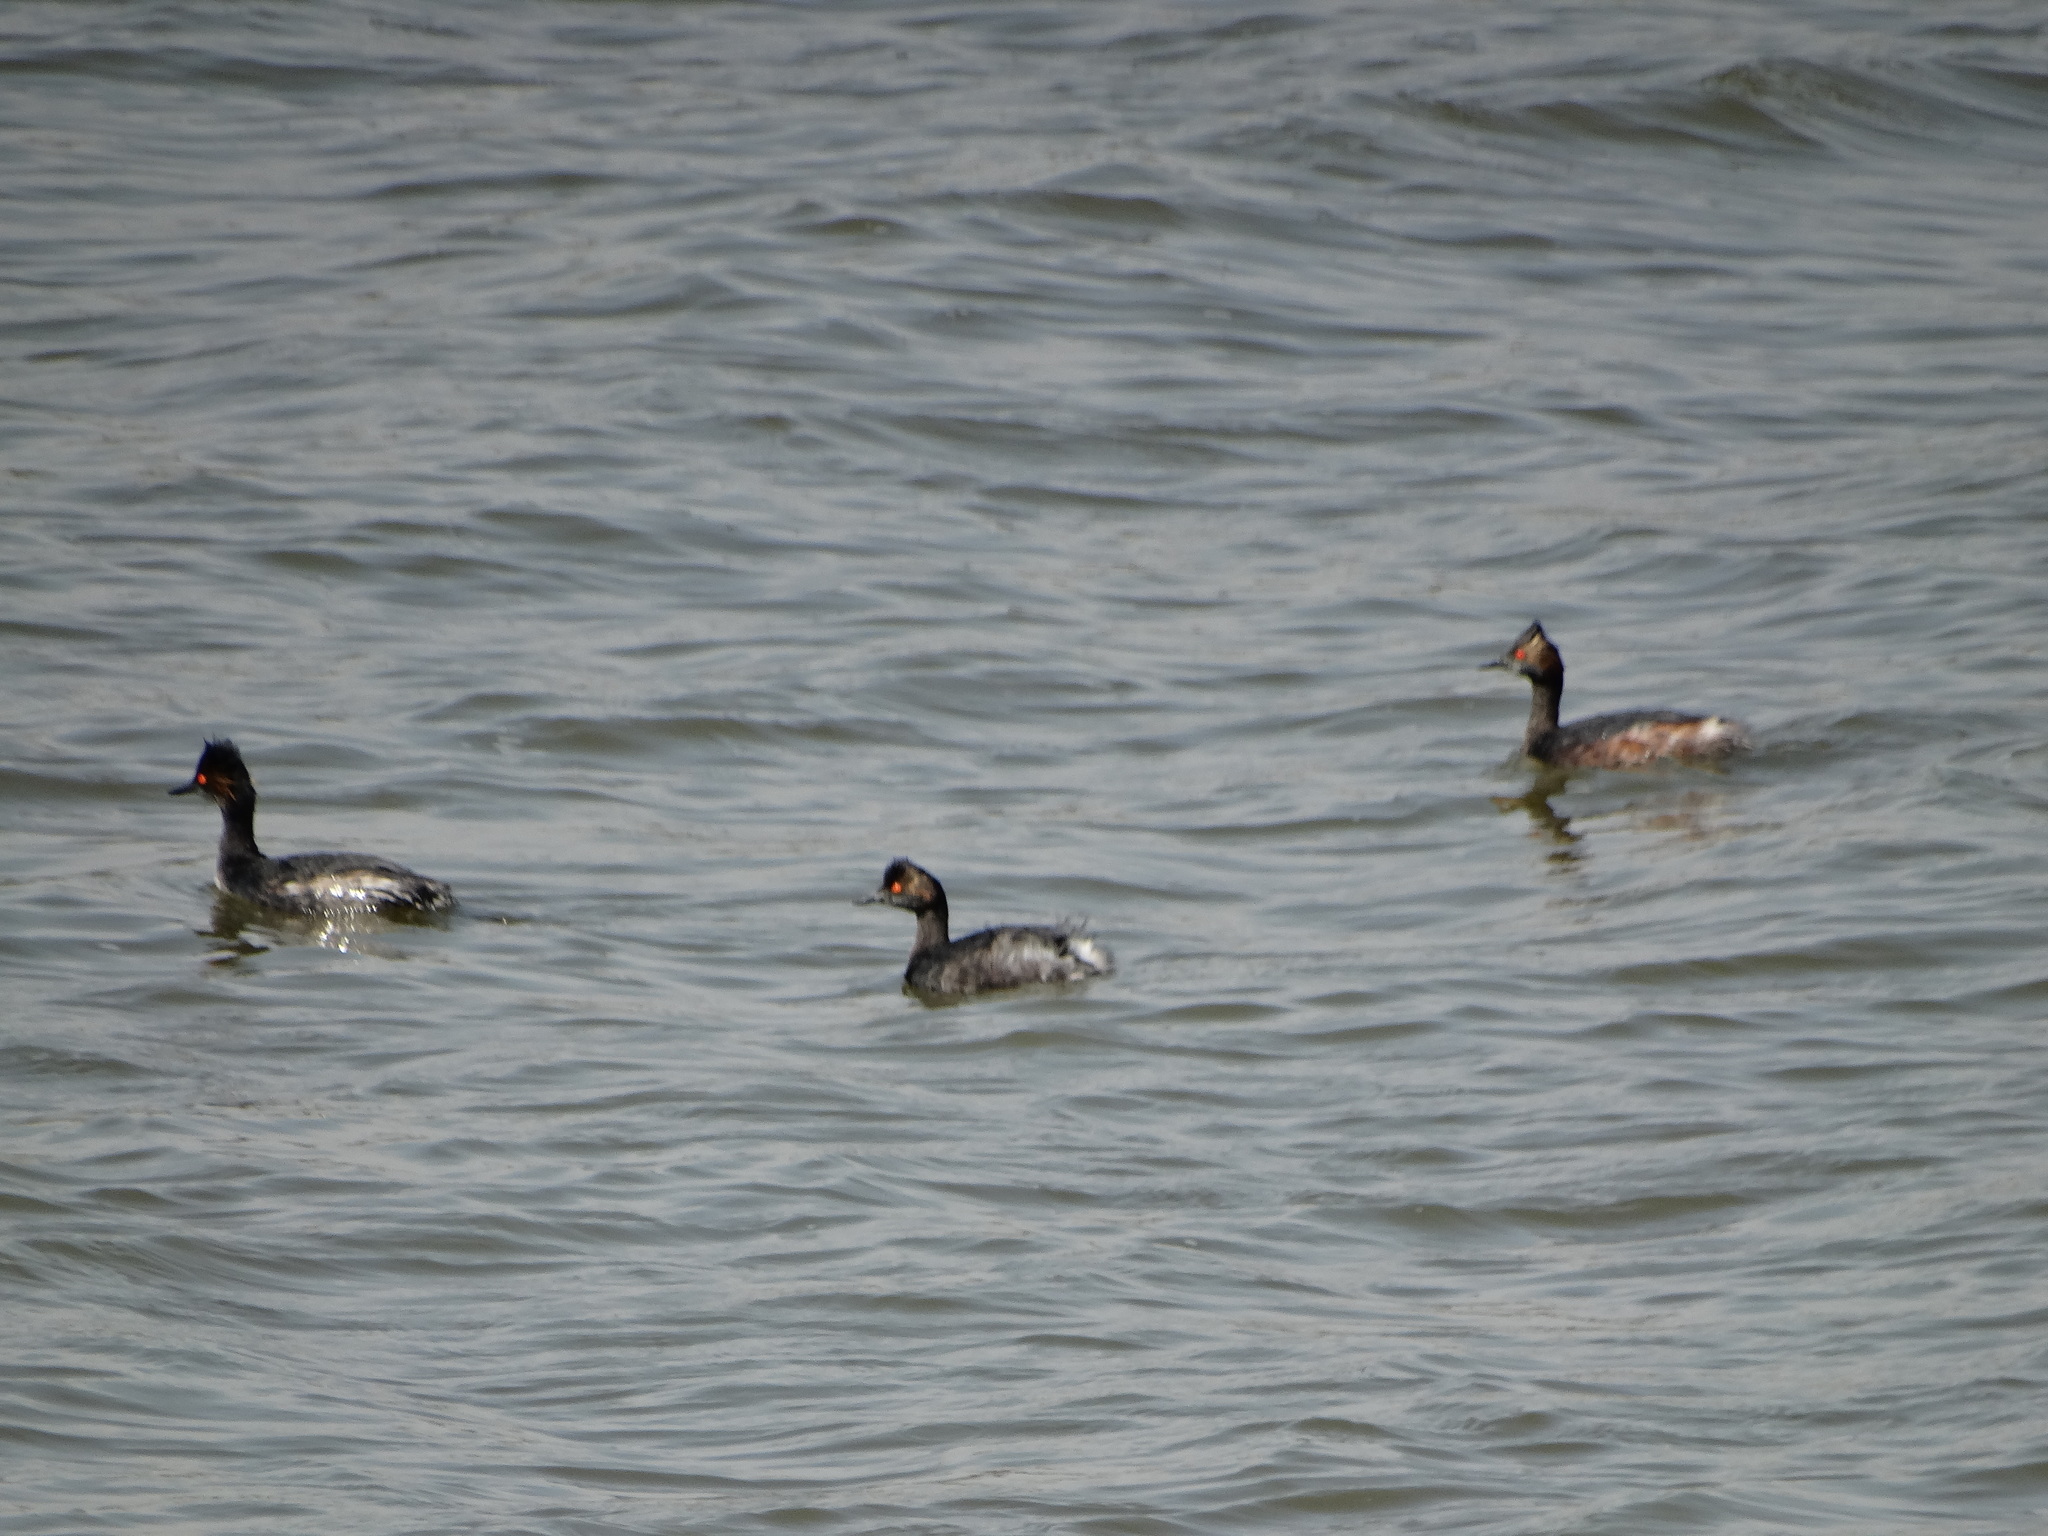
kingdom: Animalia
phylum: Chordata
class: Aves
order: Podicipediformes
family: Podicipedidae
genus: Podiceps
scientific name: Podiceps nigricollis
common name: Black-necked grebe
